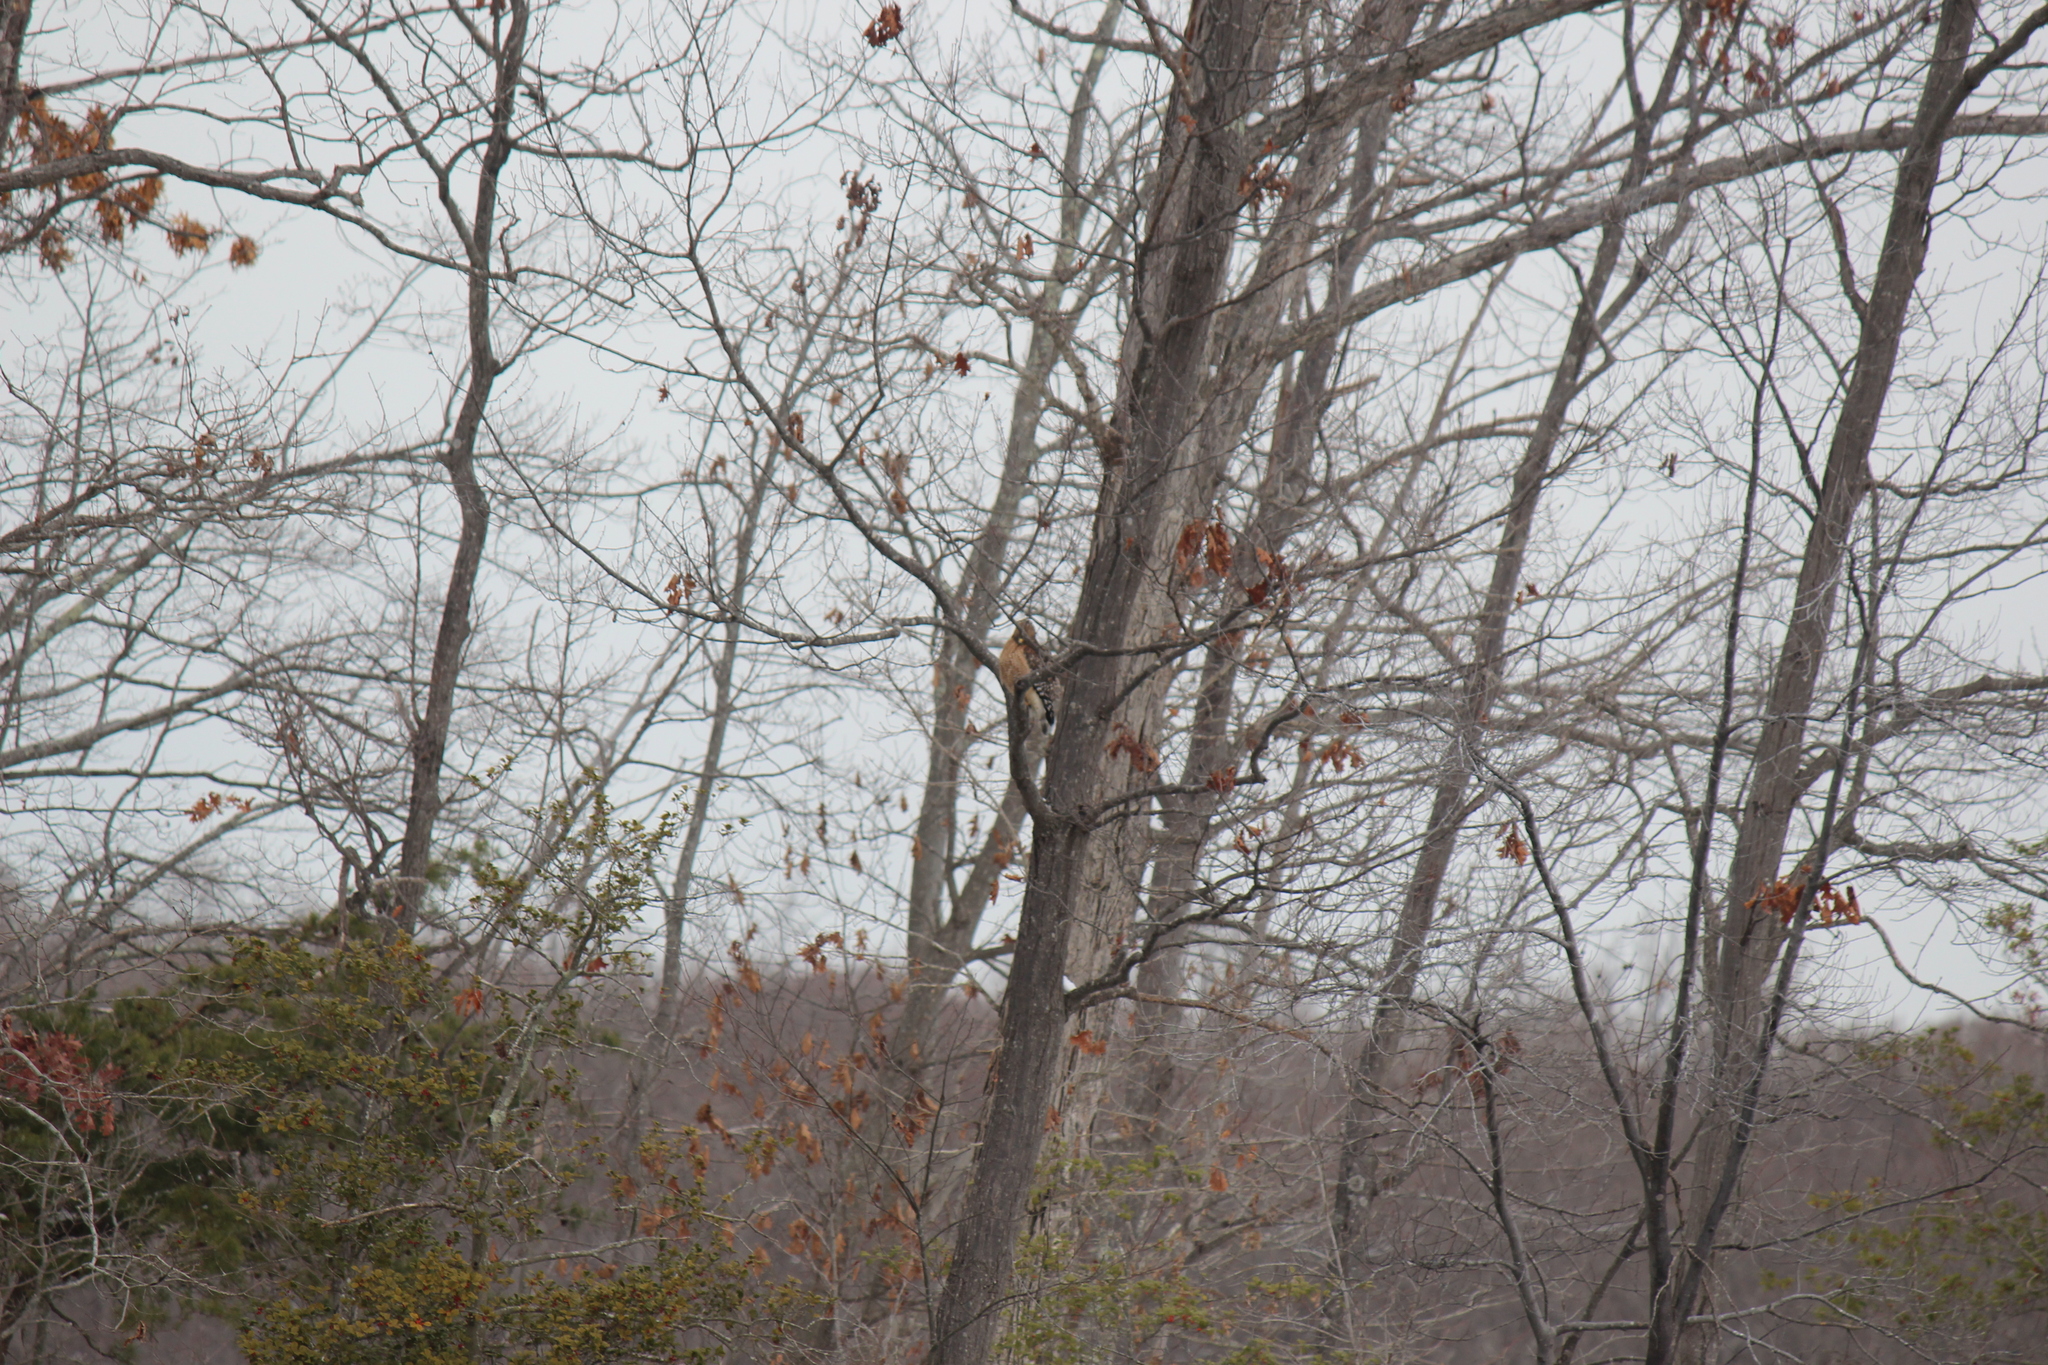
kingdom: Animalia
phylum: Chordata
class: Aves
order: Accipitriformes
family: Accipitridae
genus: Buteo
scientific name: Buteo lineatus
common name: Red-shouldered hawk
